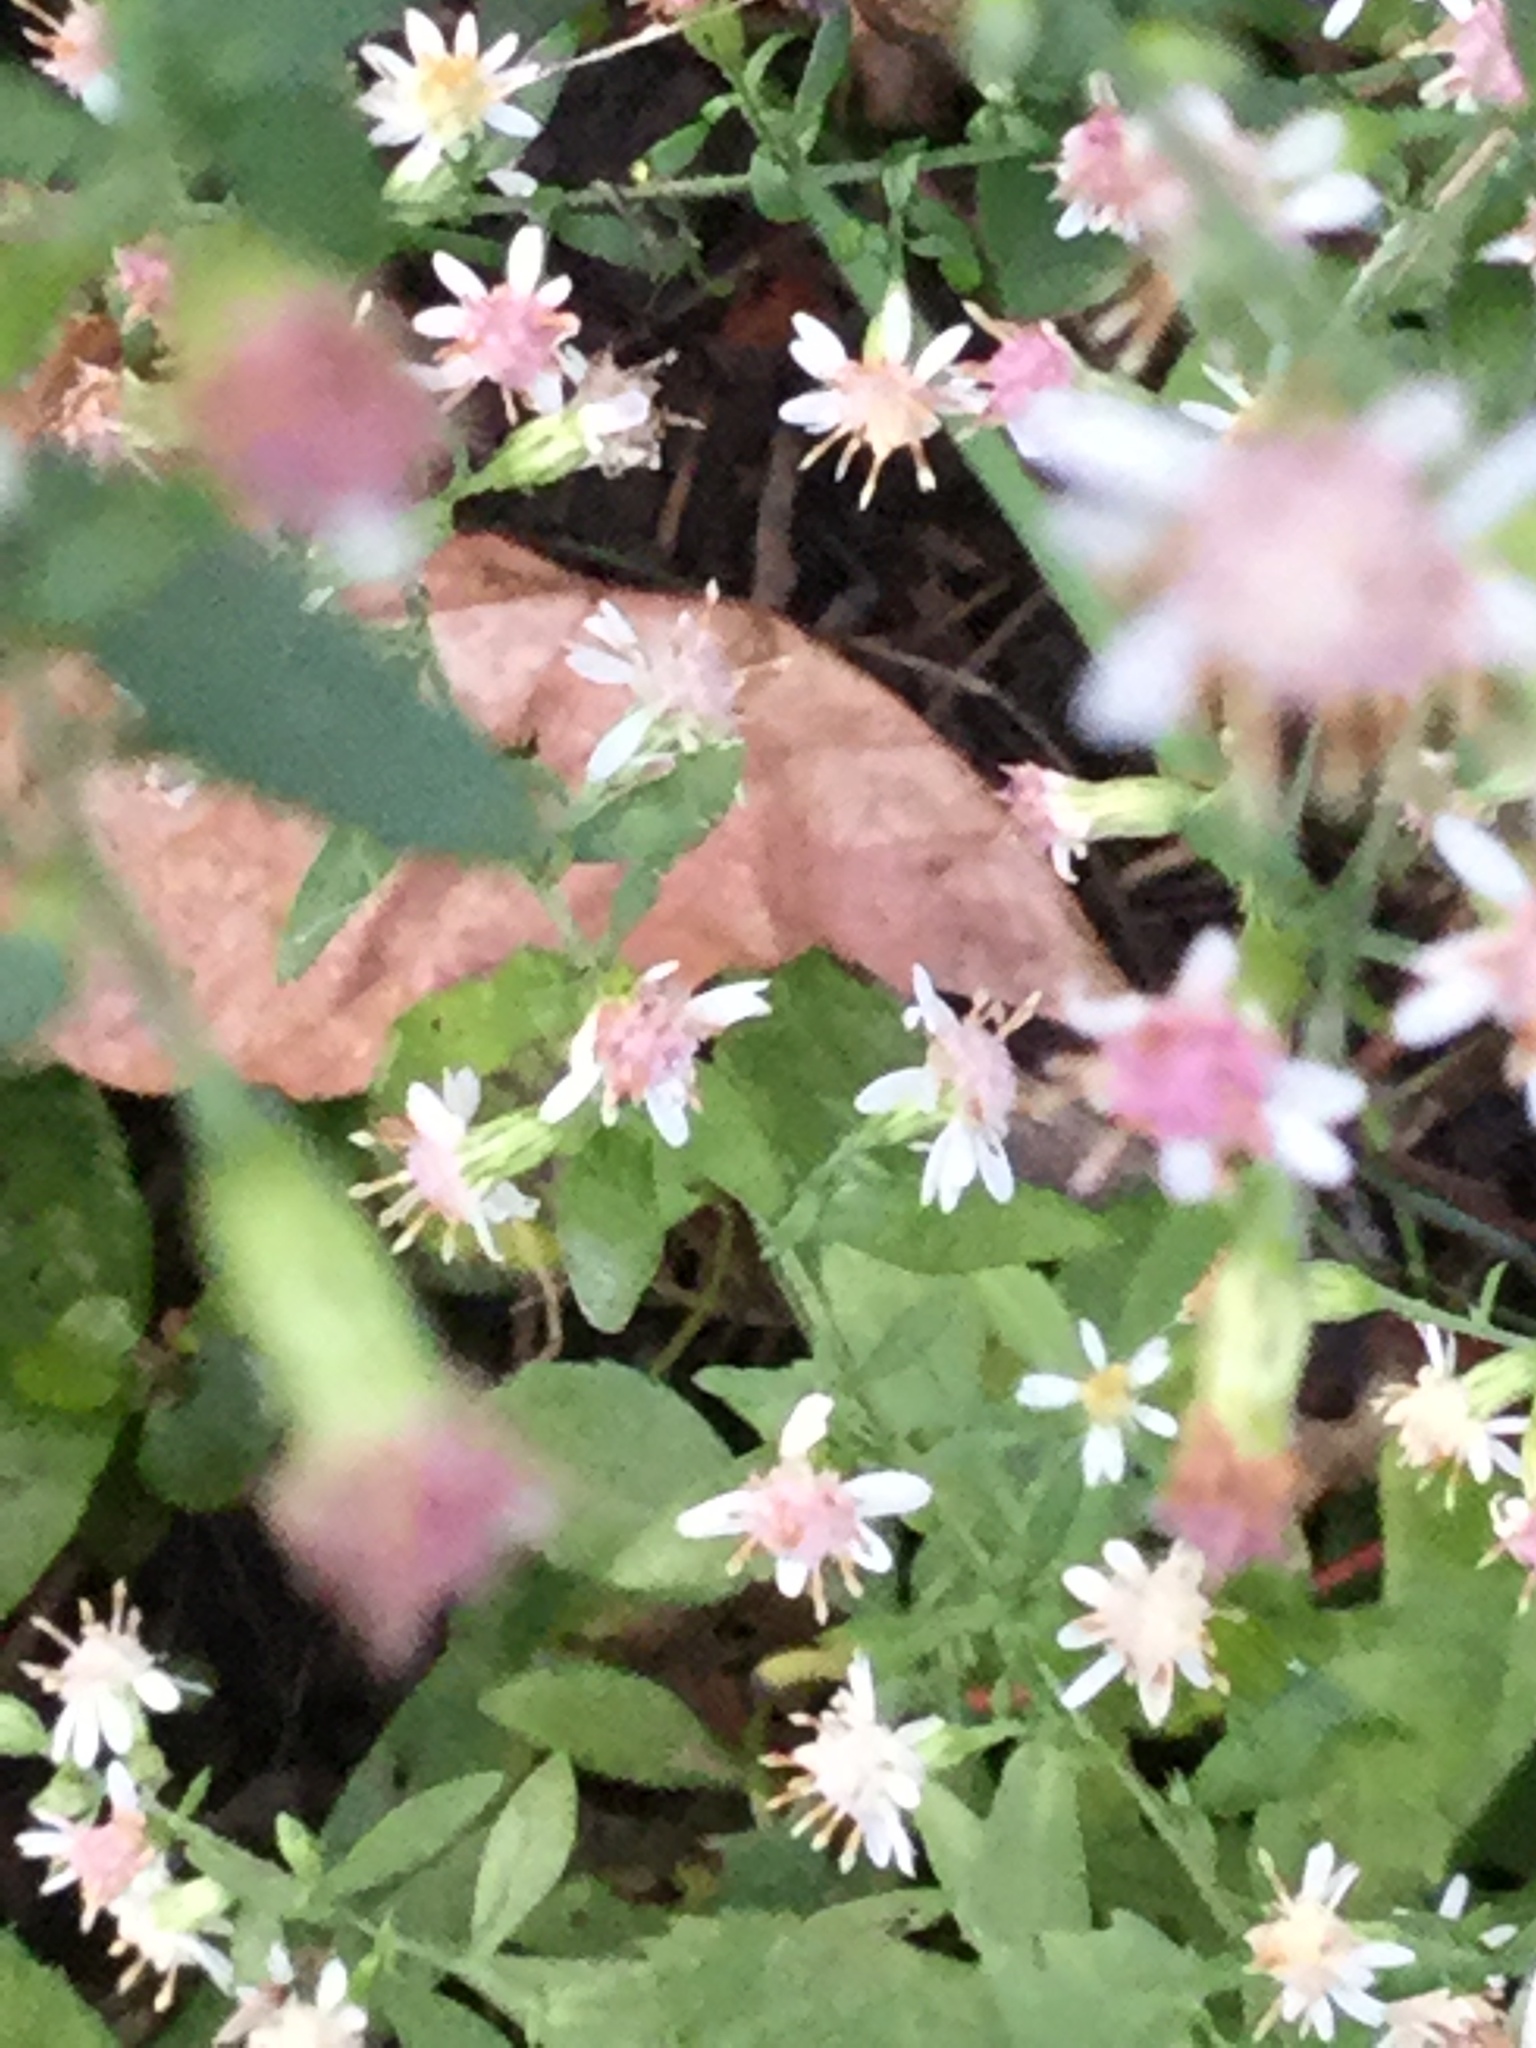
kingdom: Plantae
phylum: Tracheophyta
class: Magnoliopsida
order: Asterales
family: Asteraceae
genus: Symphyotrichum
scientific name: Symphyotrichum lateriflorum
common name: Calico aster
